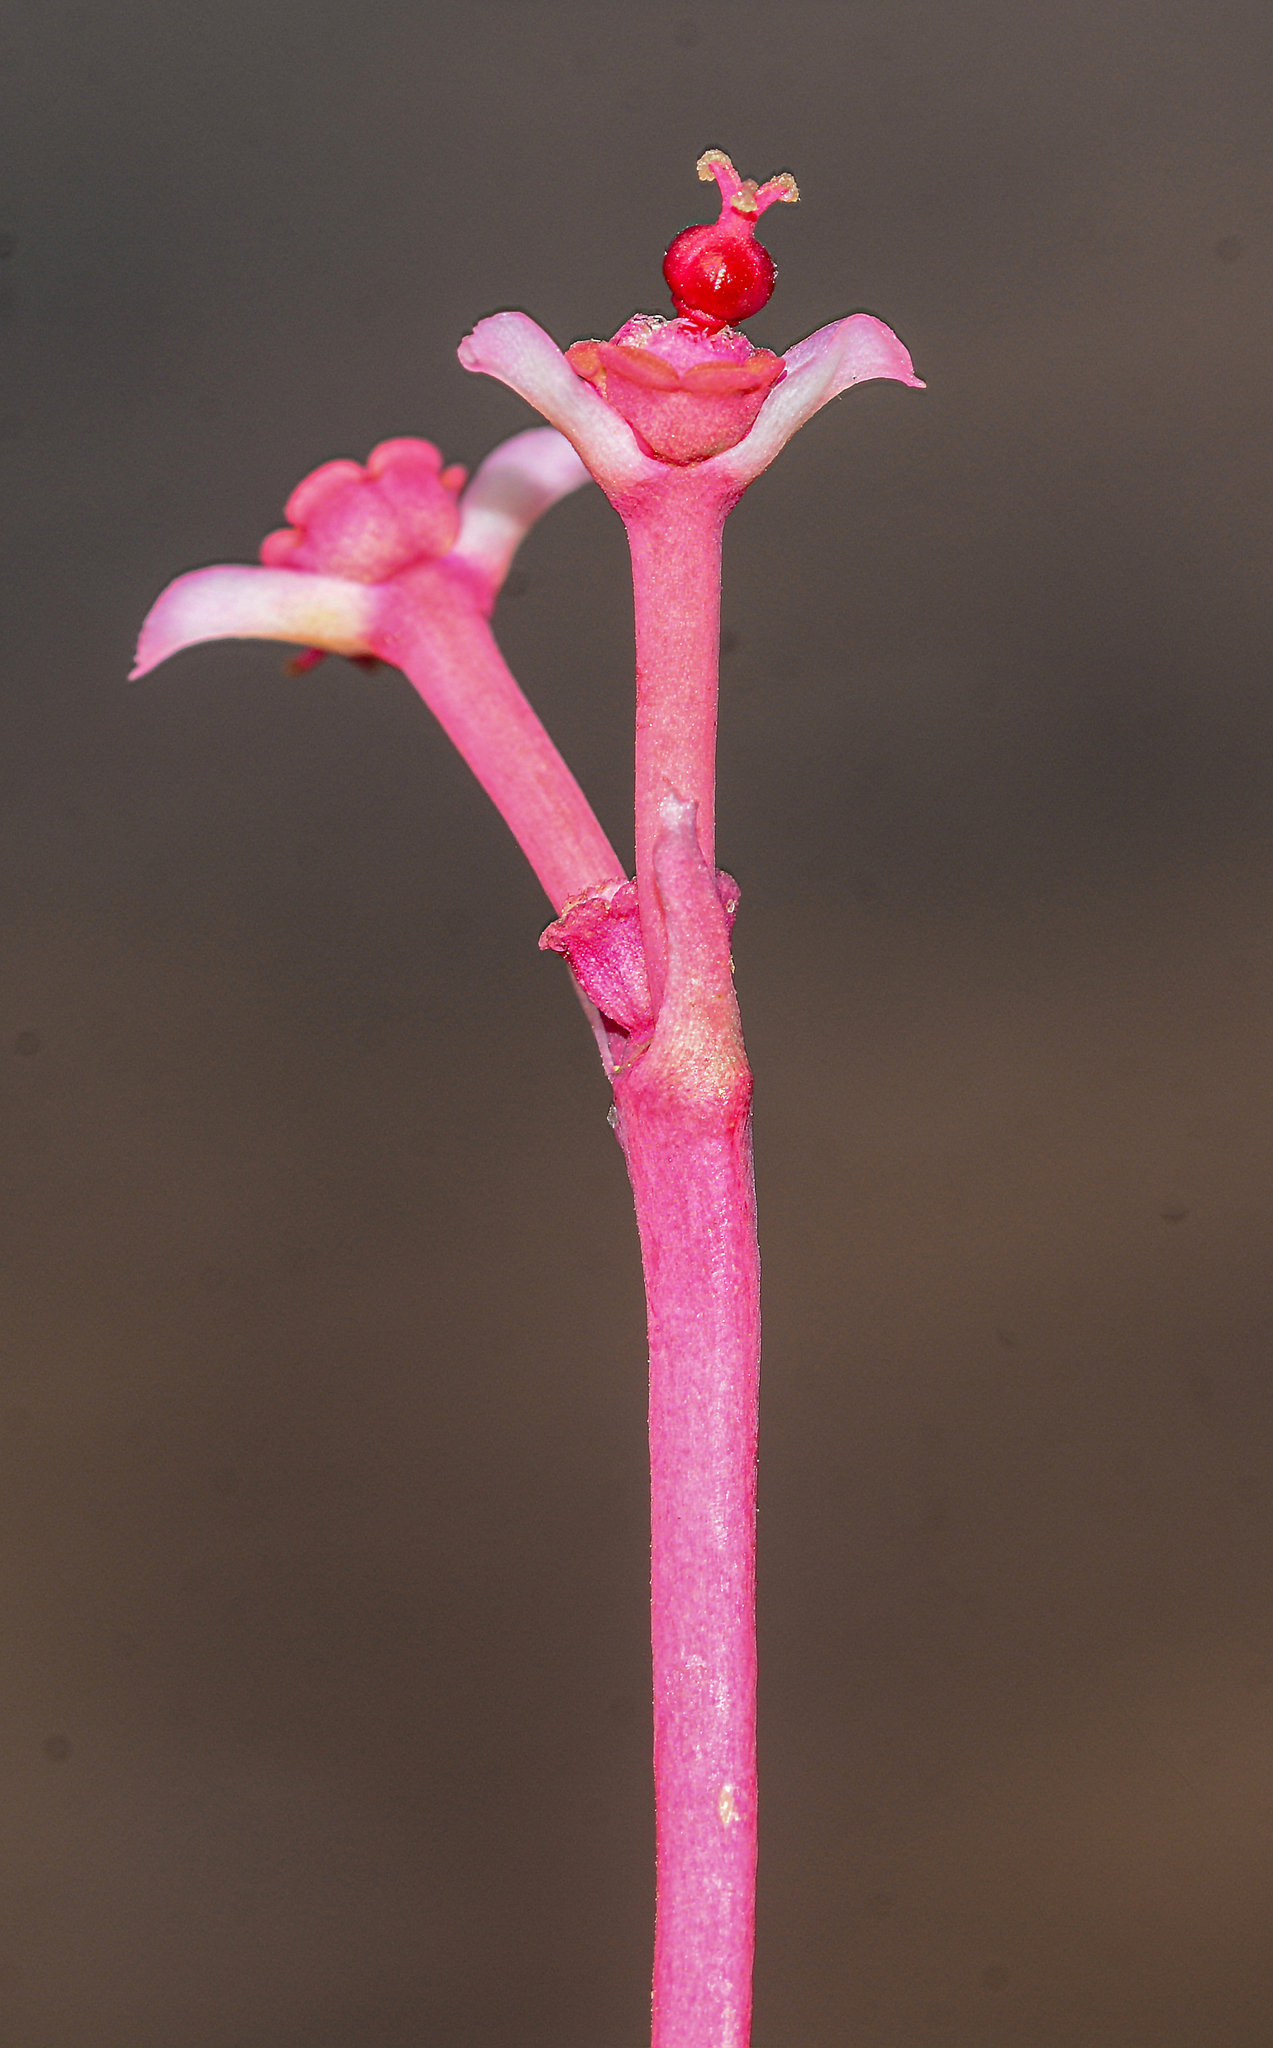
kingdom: Plantae
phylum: Tracheophyta
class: Magnoliopsida
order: Malpighiales
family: Euphorbiaceae
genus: Euphorbia
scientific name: Euphorbia khandallensis
